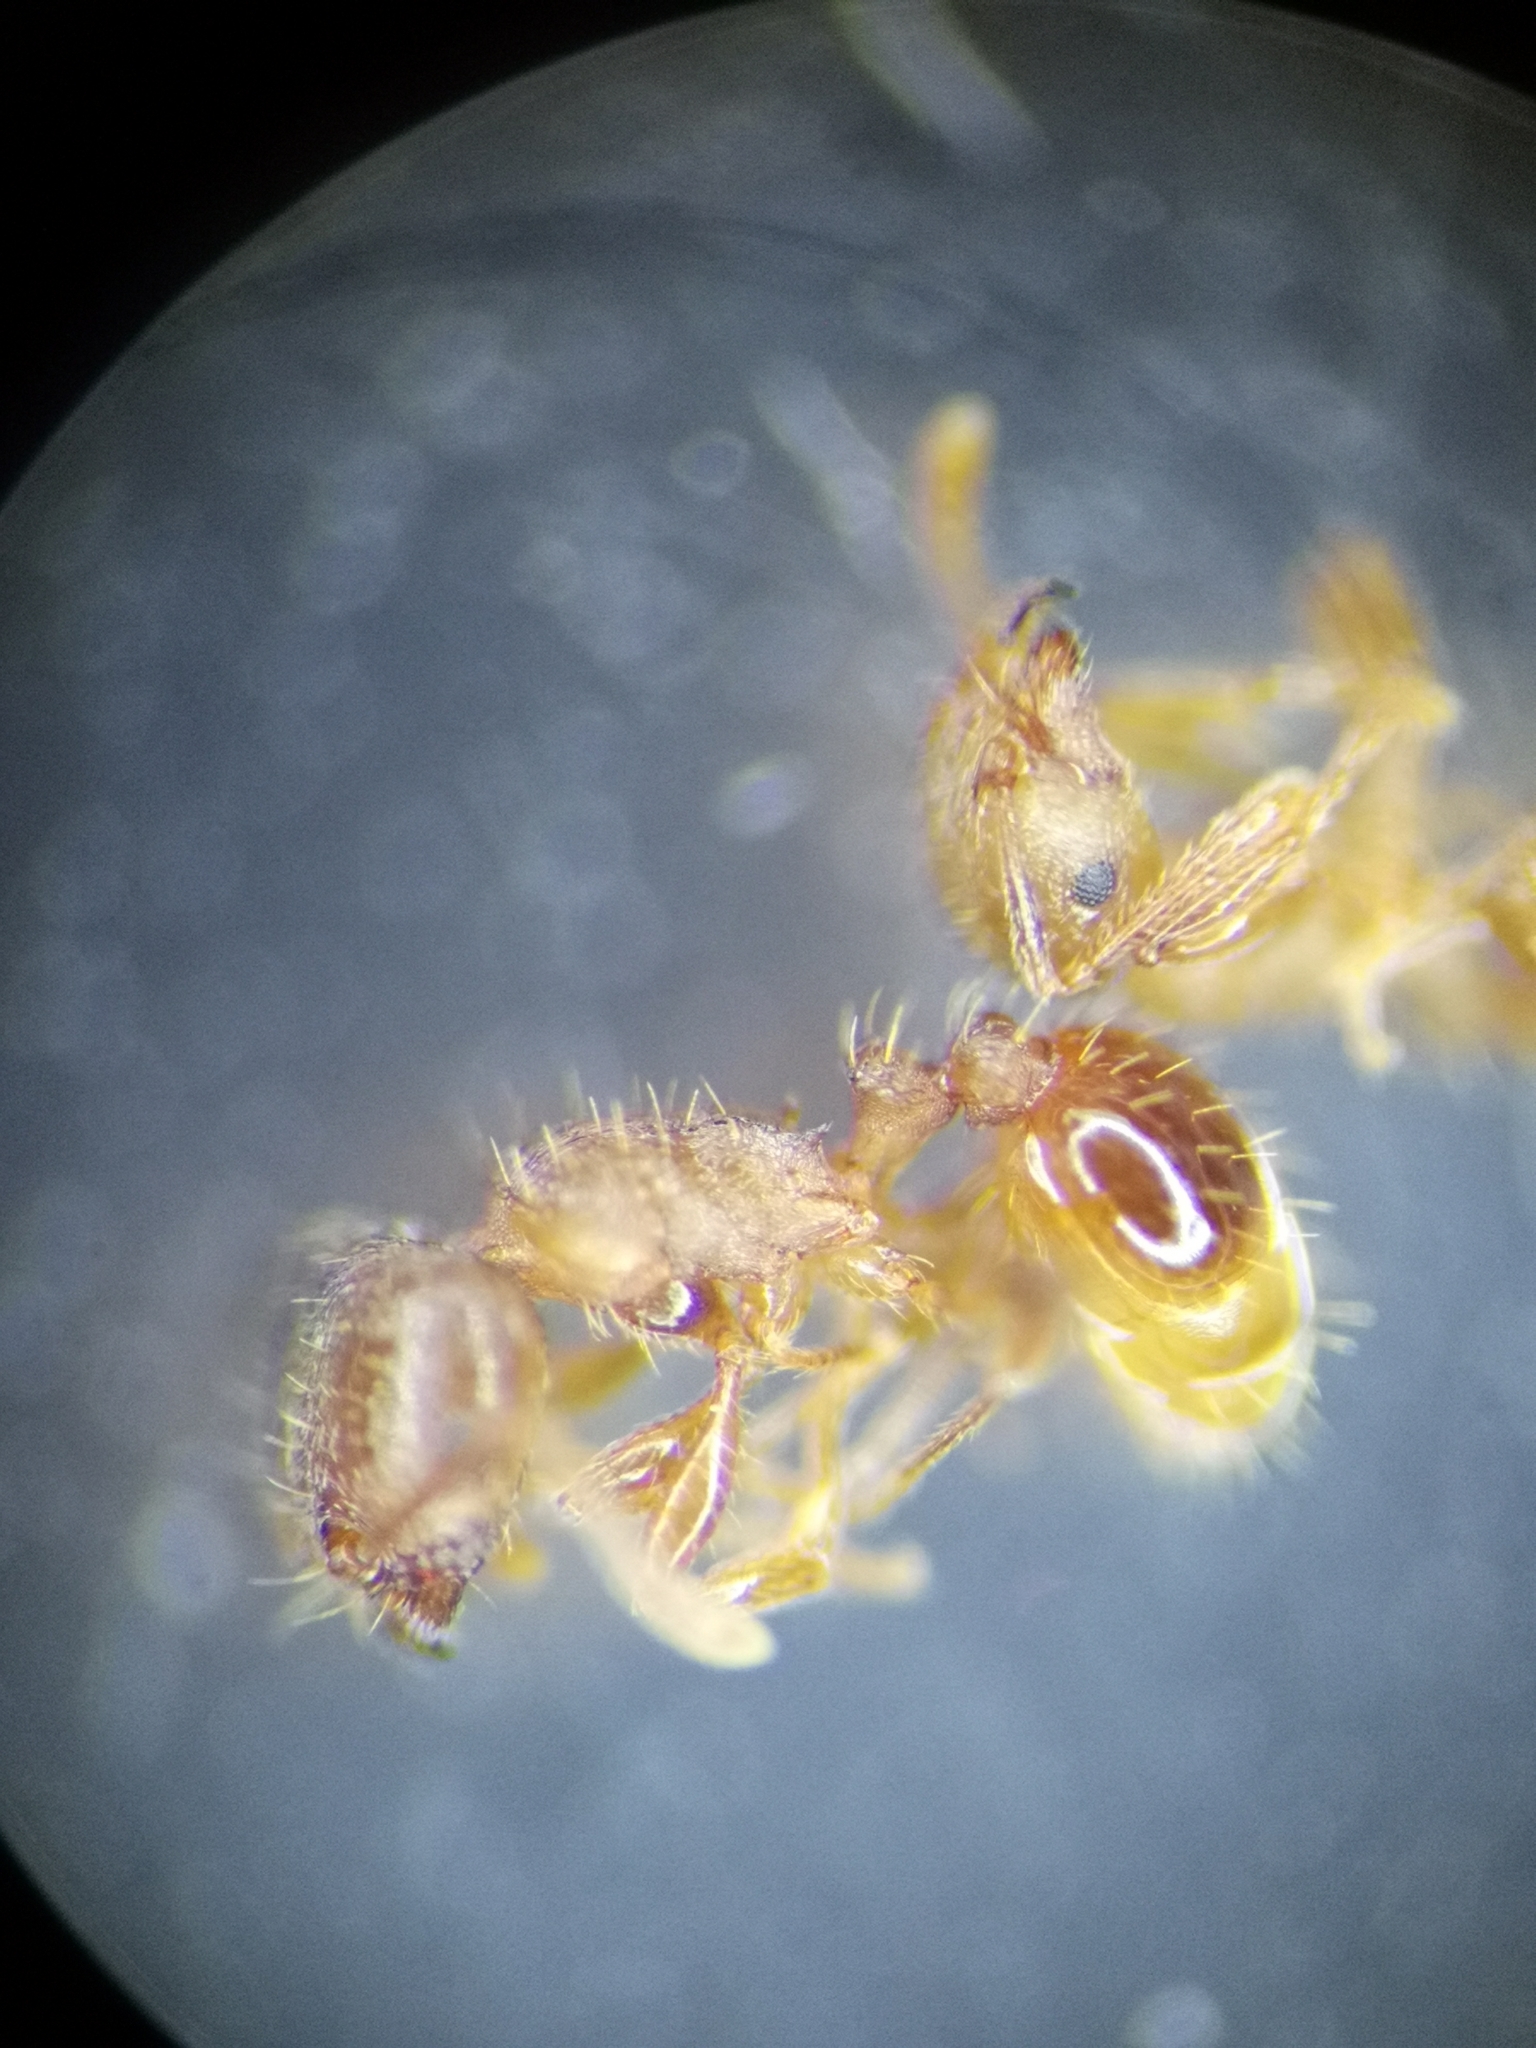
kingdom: Animalia
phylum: Arthropoda
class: Insecta
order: Hymenoptera
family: Formicidae
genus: Tetramorium
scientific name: Tetramorium meridionale
